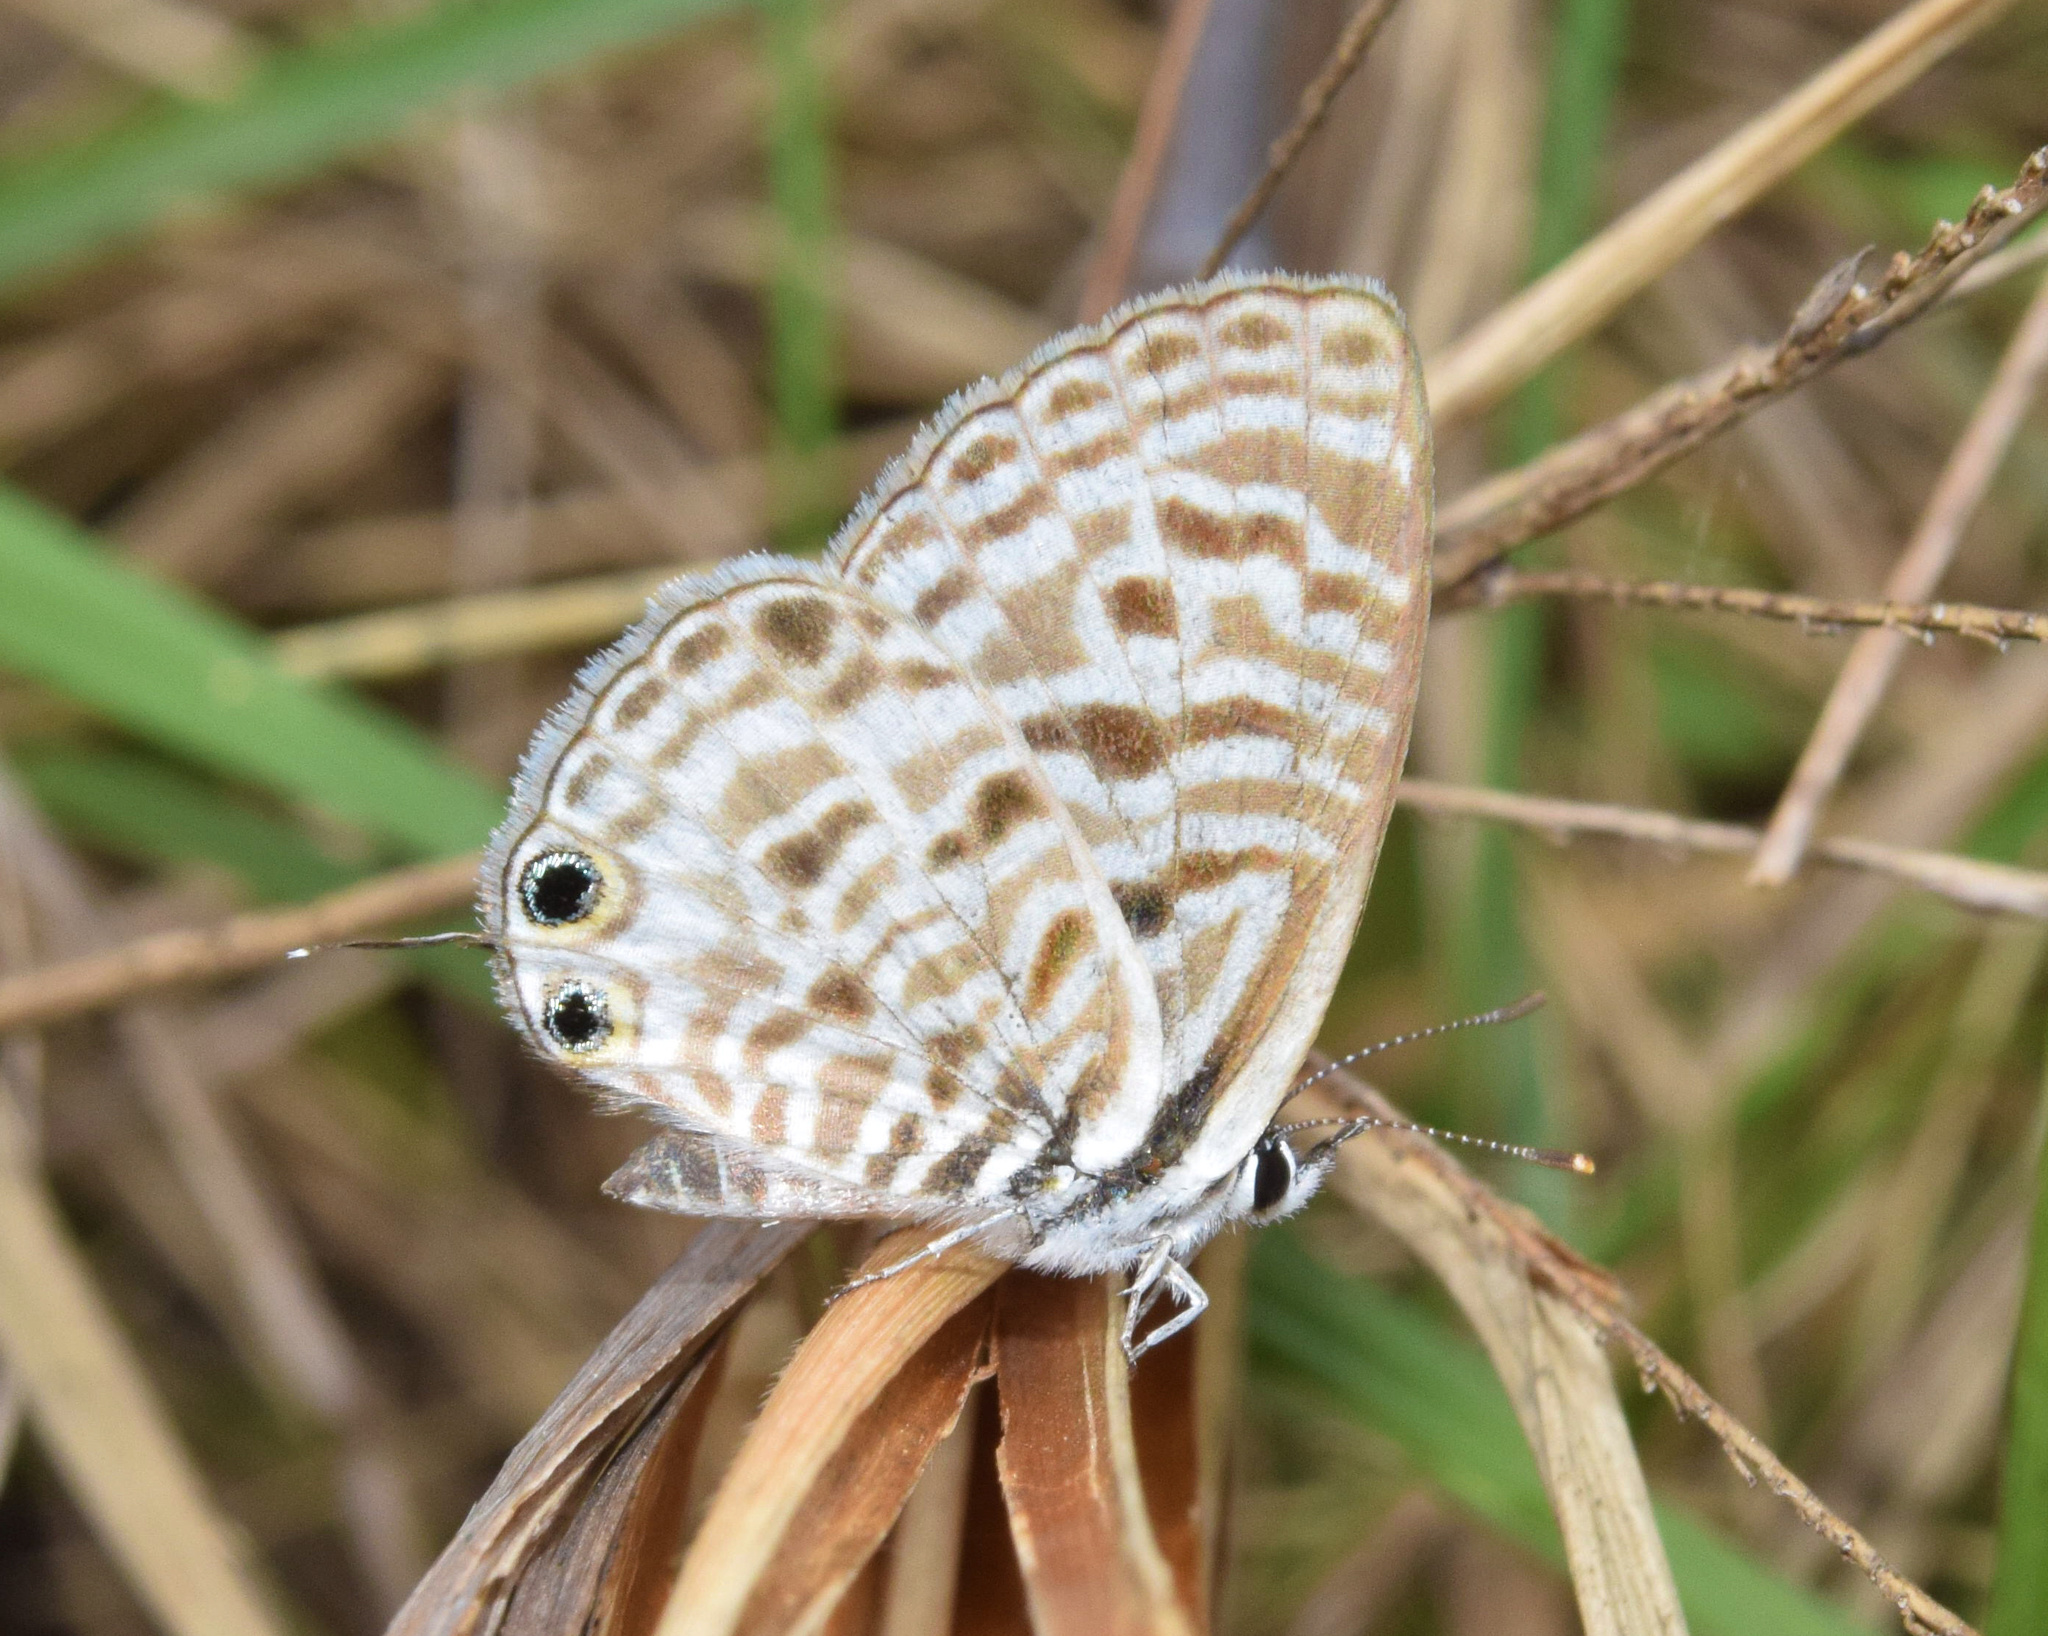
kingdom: Animalia
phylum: Arthropoda
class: Insecta
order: Lepidoptera
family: Lycaenidae
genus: Leptotes
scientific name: Leptotes
